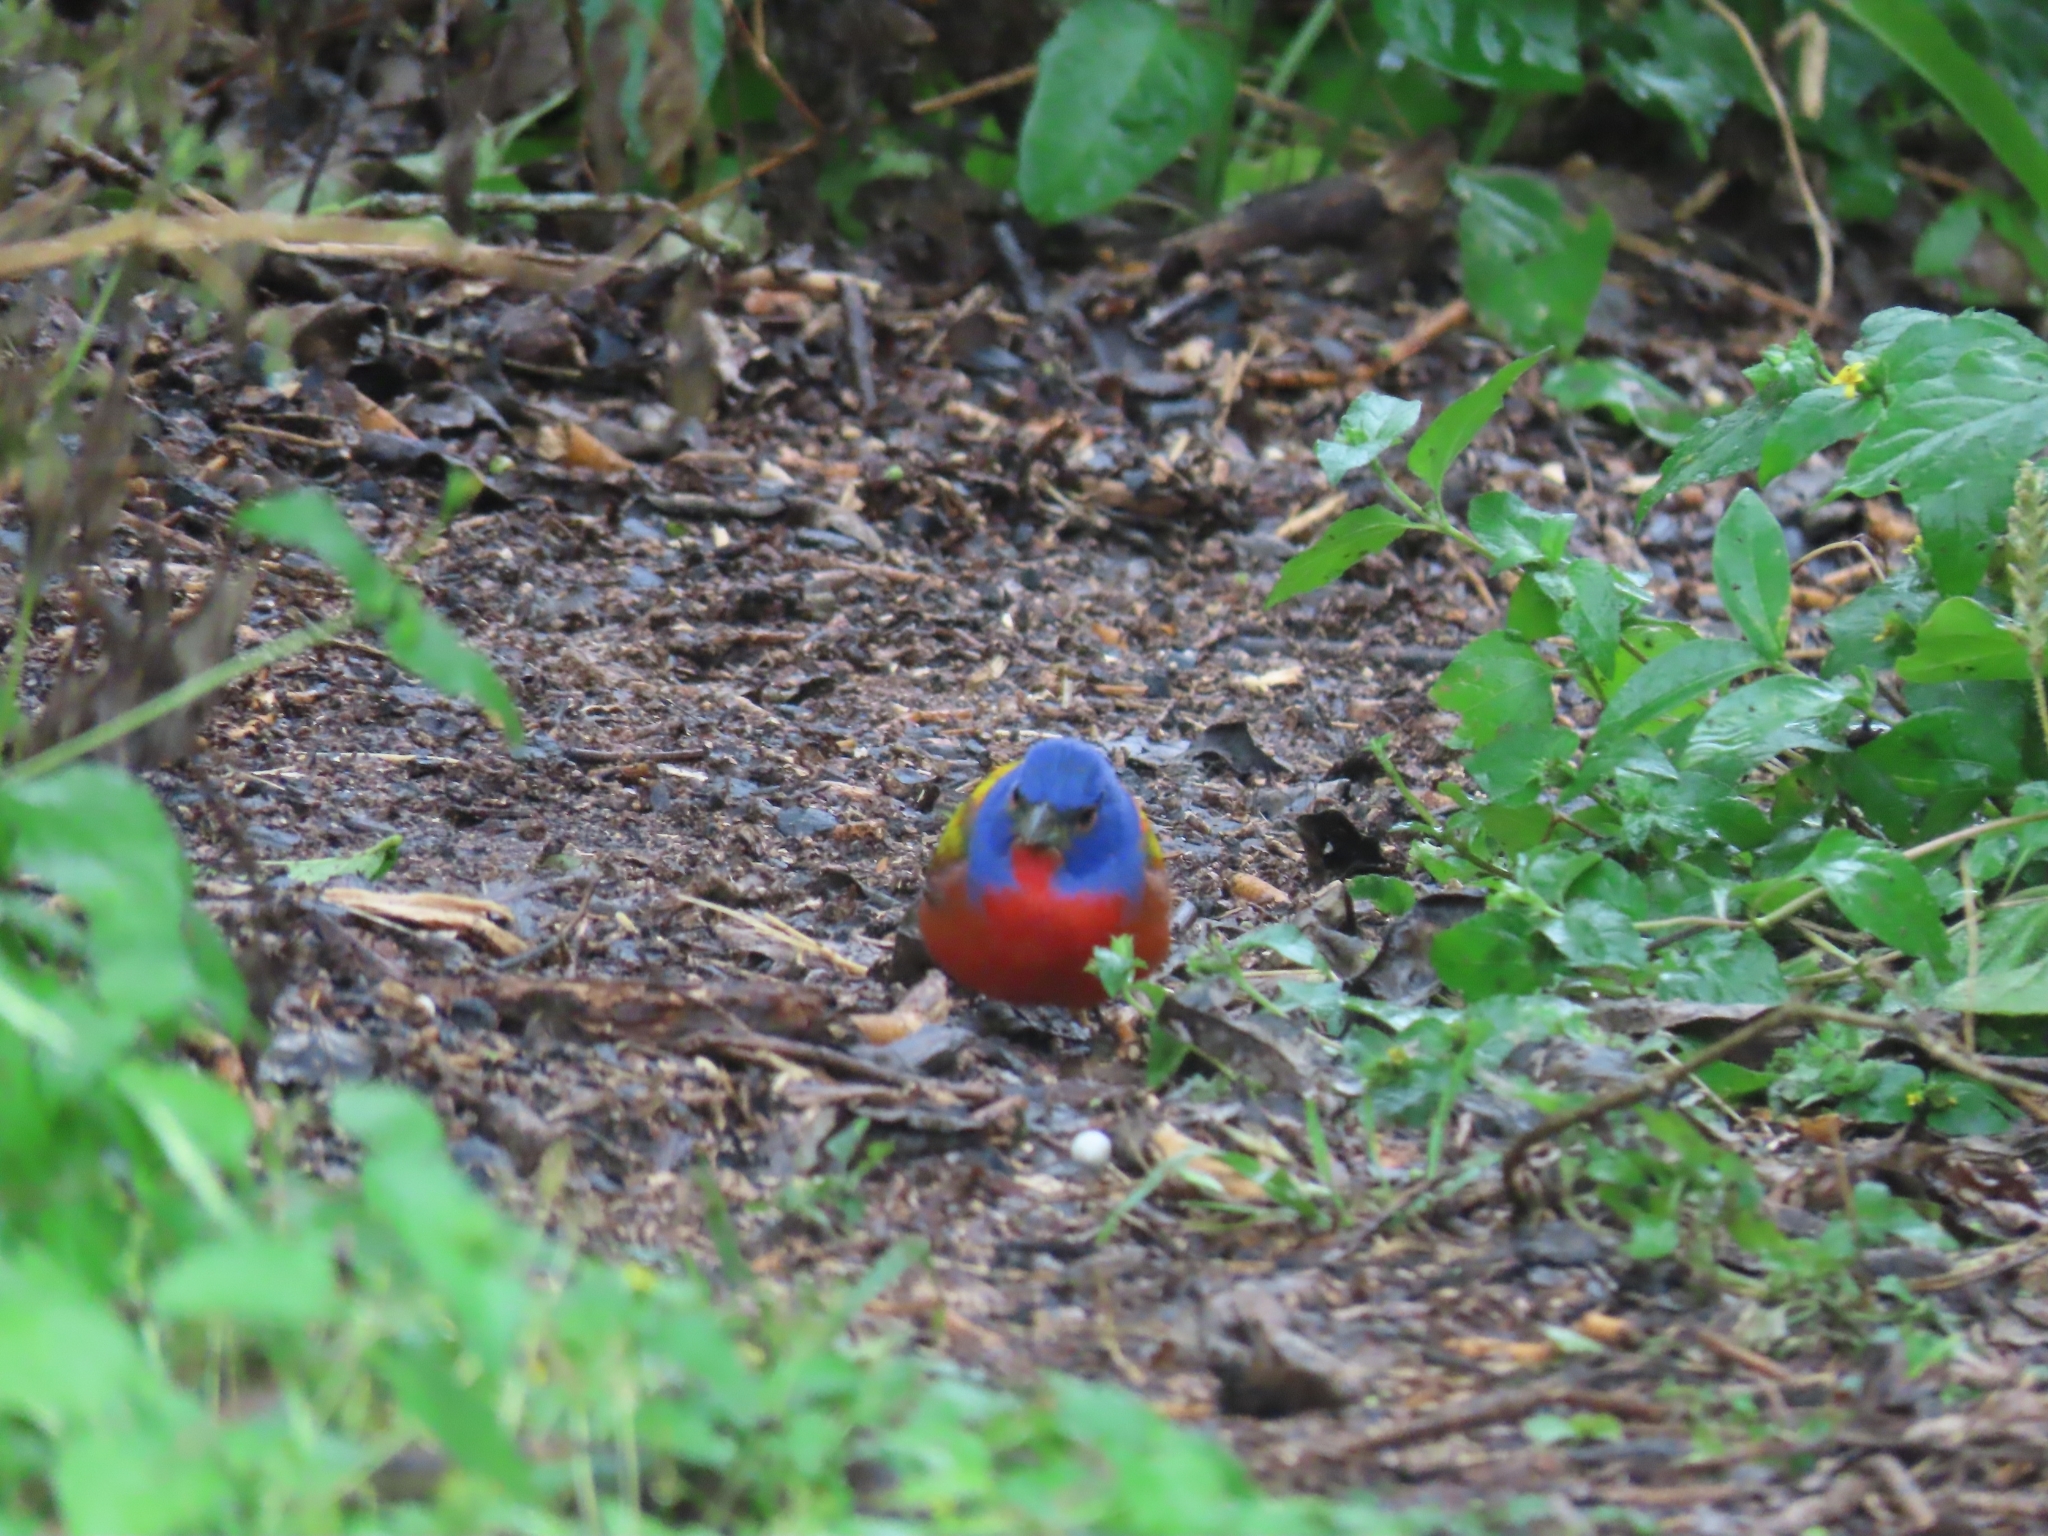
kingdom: Animalia
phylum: Chordata
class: Aves
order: Passeriformes
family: Cardinalidae
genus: Passerina
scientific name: Passerina ciris
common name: Painted bunting
